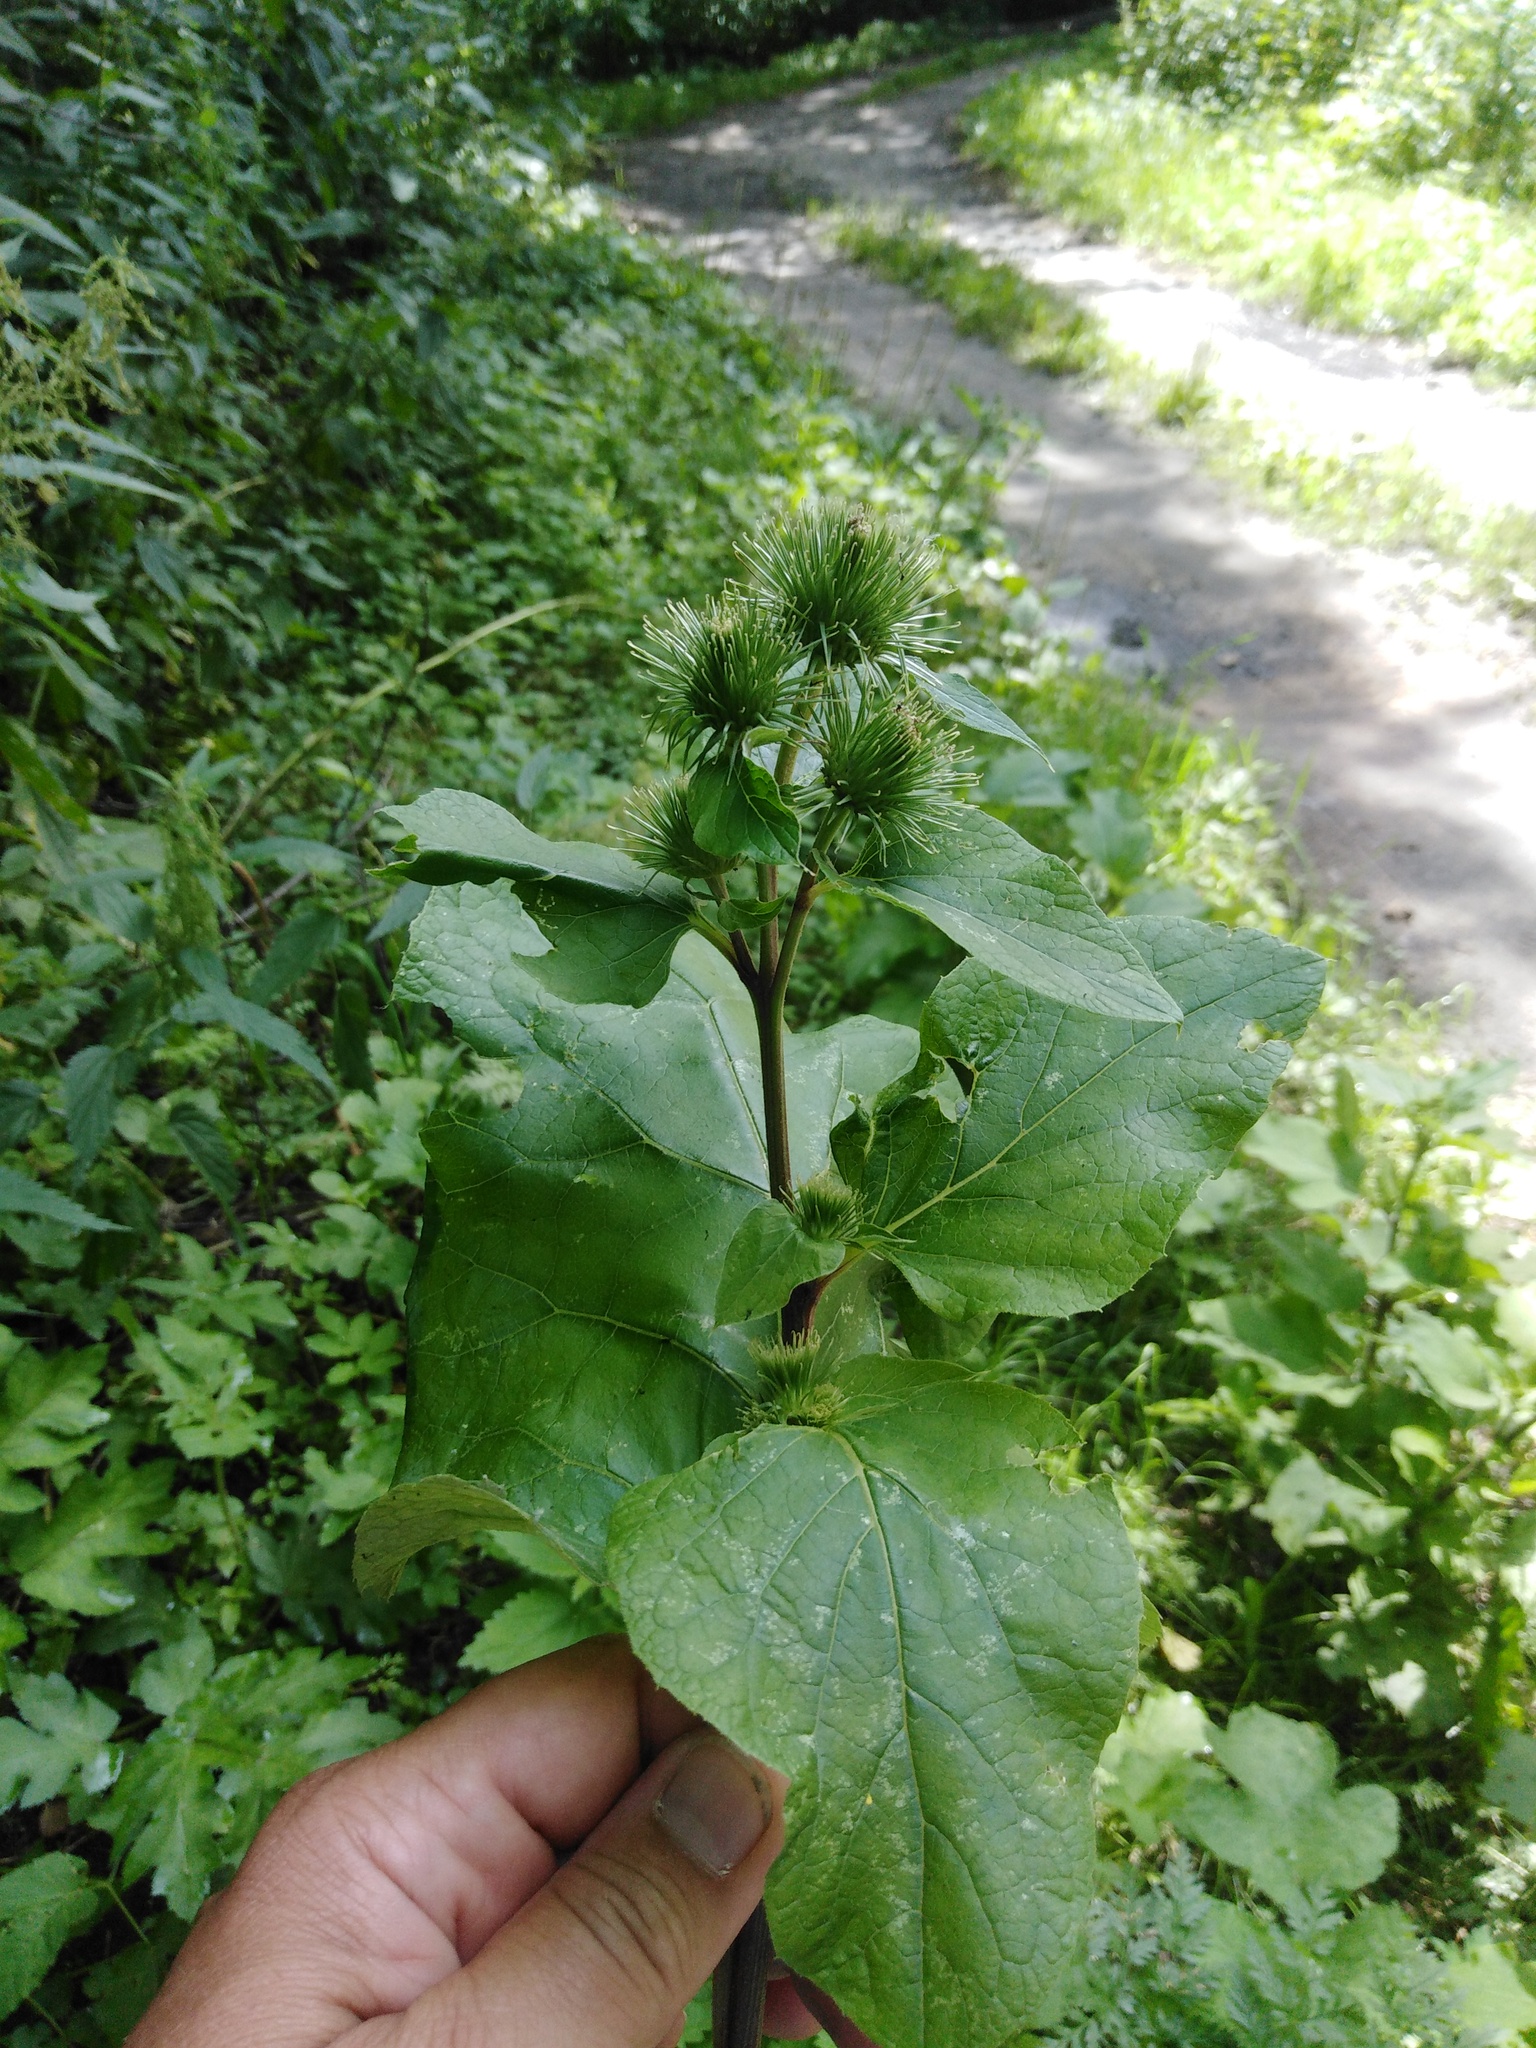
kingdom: Plantae
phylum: Tracheophyta
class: Magnoliopsida
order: Asterales
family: Asteraceae
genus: Arctium
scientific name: Arctium minus
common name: Lesser burdock
